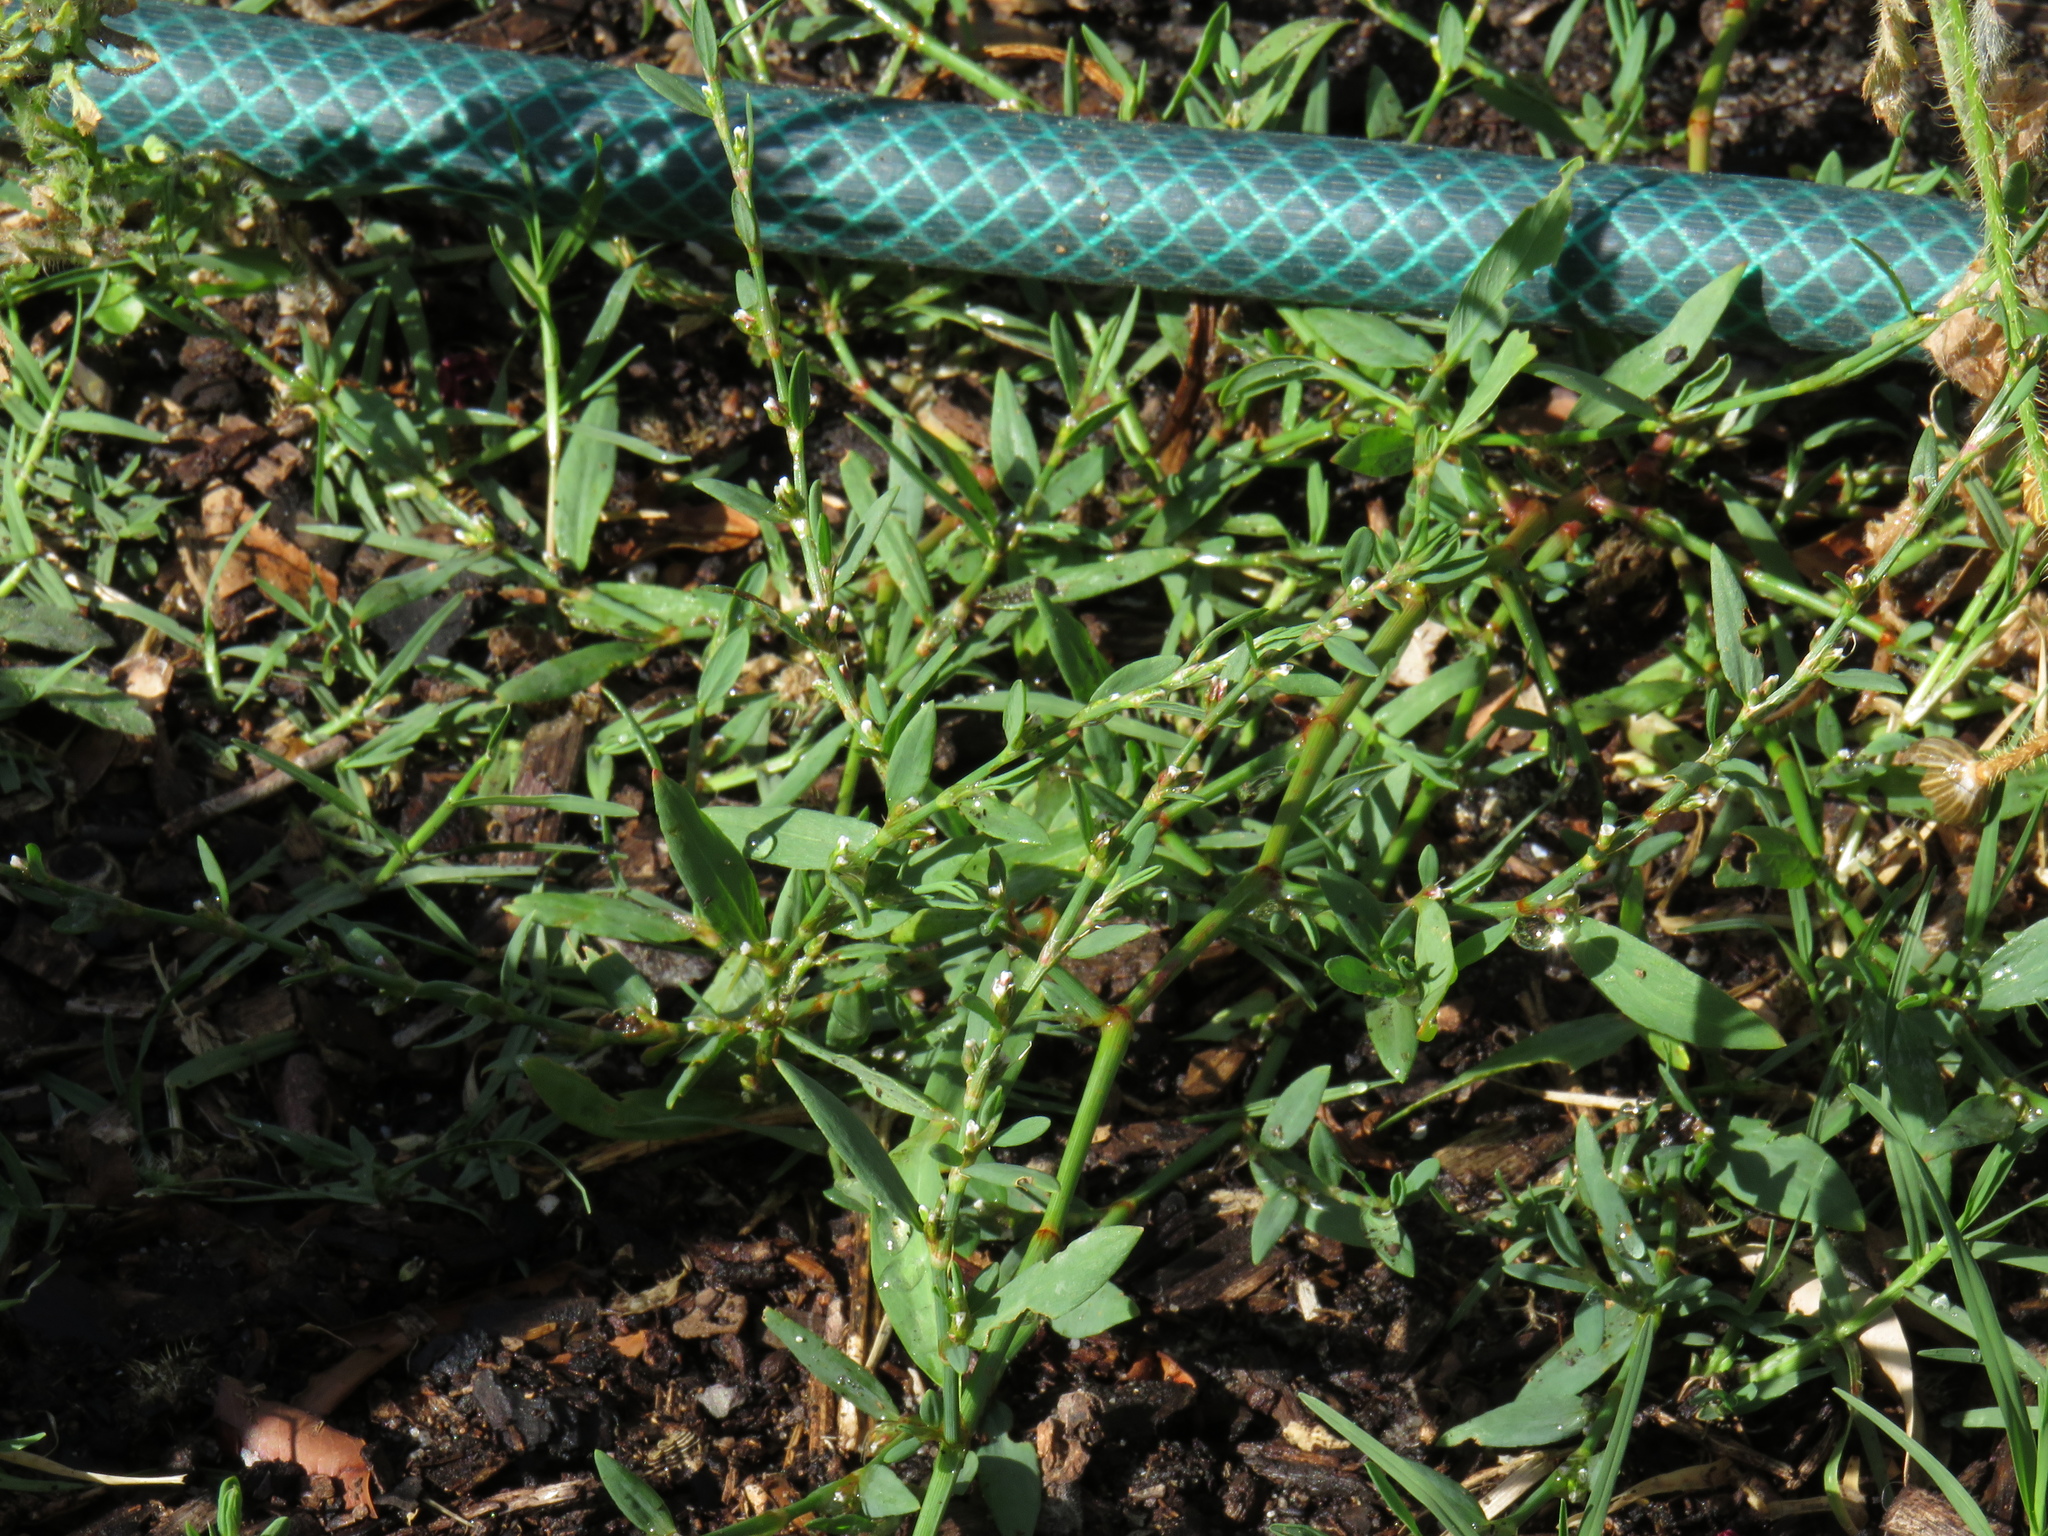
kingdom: Plantae
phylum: Tracheophyta
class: Magnoliopsida
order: Caryophyllales
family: Polygonaceae
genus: Polygonum
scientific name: Polygonum aviculare
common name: Prostrate knotweed
